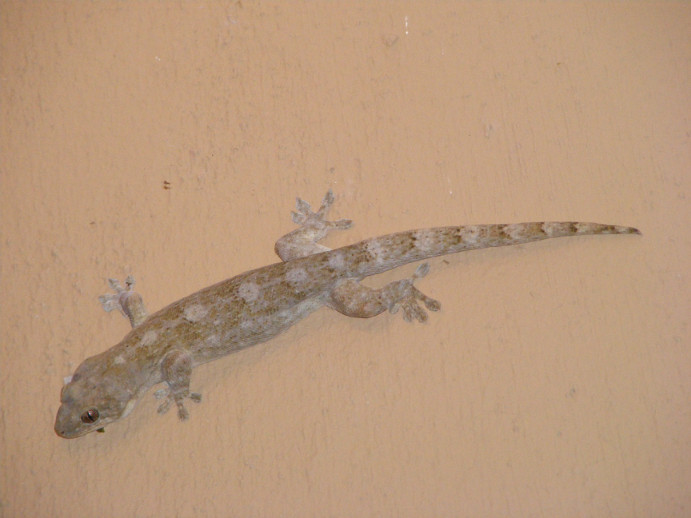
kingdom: Animalia
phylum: Chordata
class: Squamata
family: Gekkonidae
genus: Homopholis
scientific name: Homopholis walbergii
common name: Wahlberg’s velvet gecko
